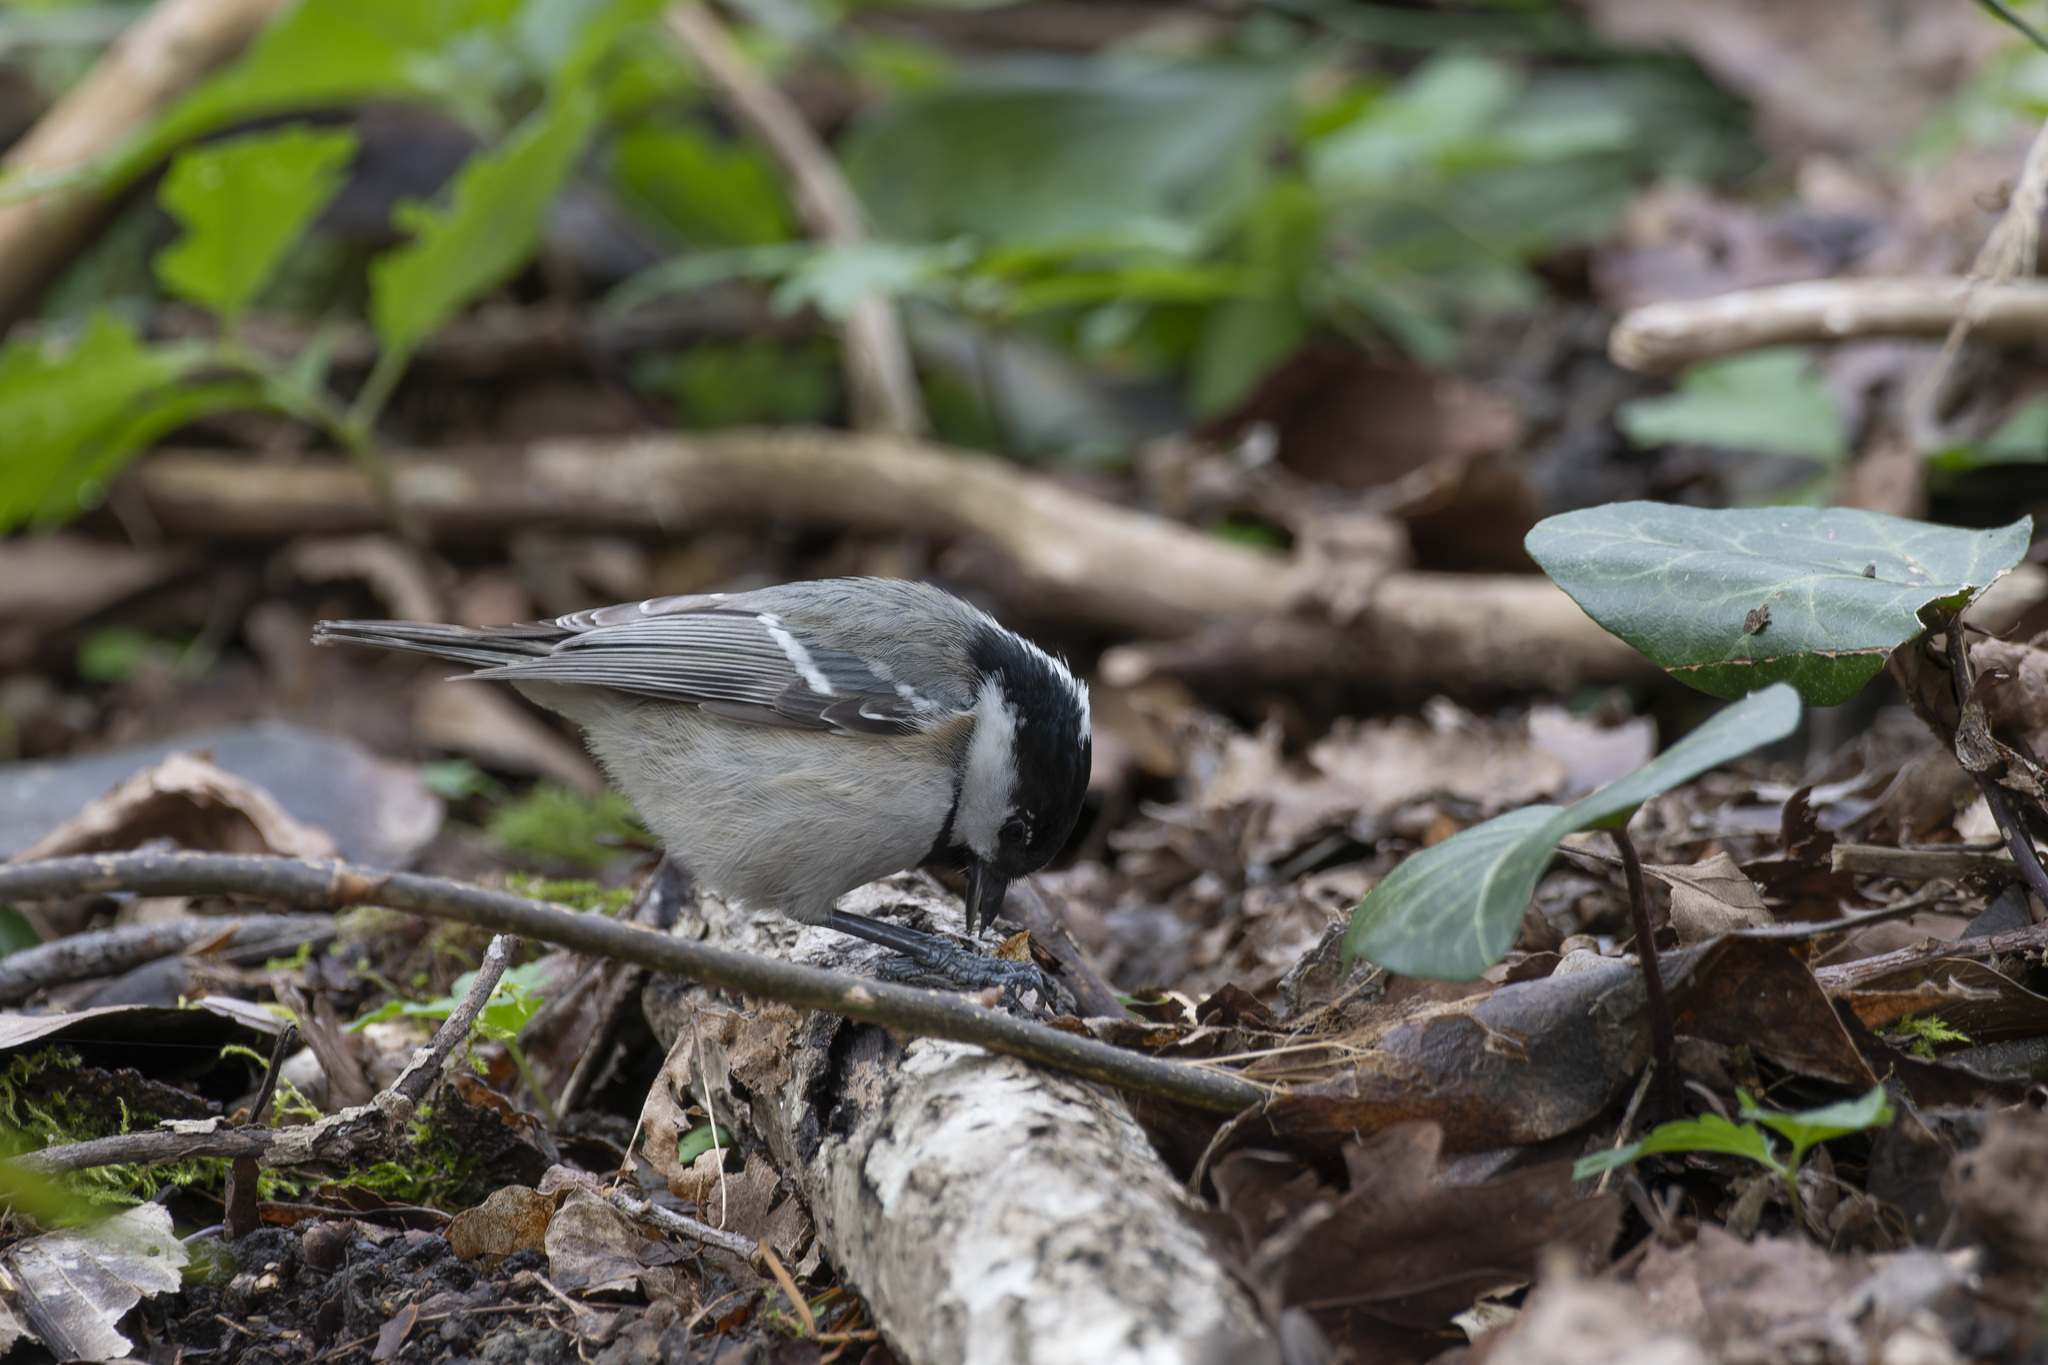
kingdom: Animalia
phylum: Chordata
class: Aves
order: Passeriformes
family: Paridae
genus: Periparus
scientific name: Periparus ater
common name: Coal tit
